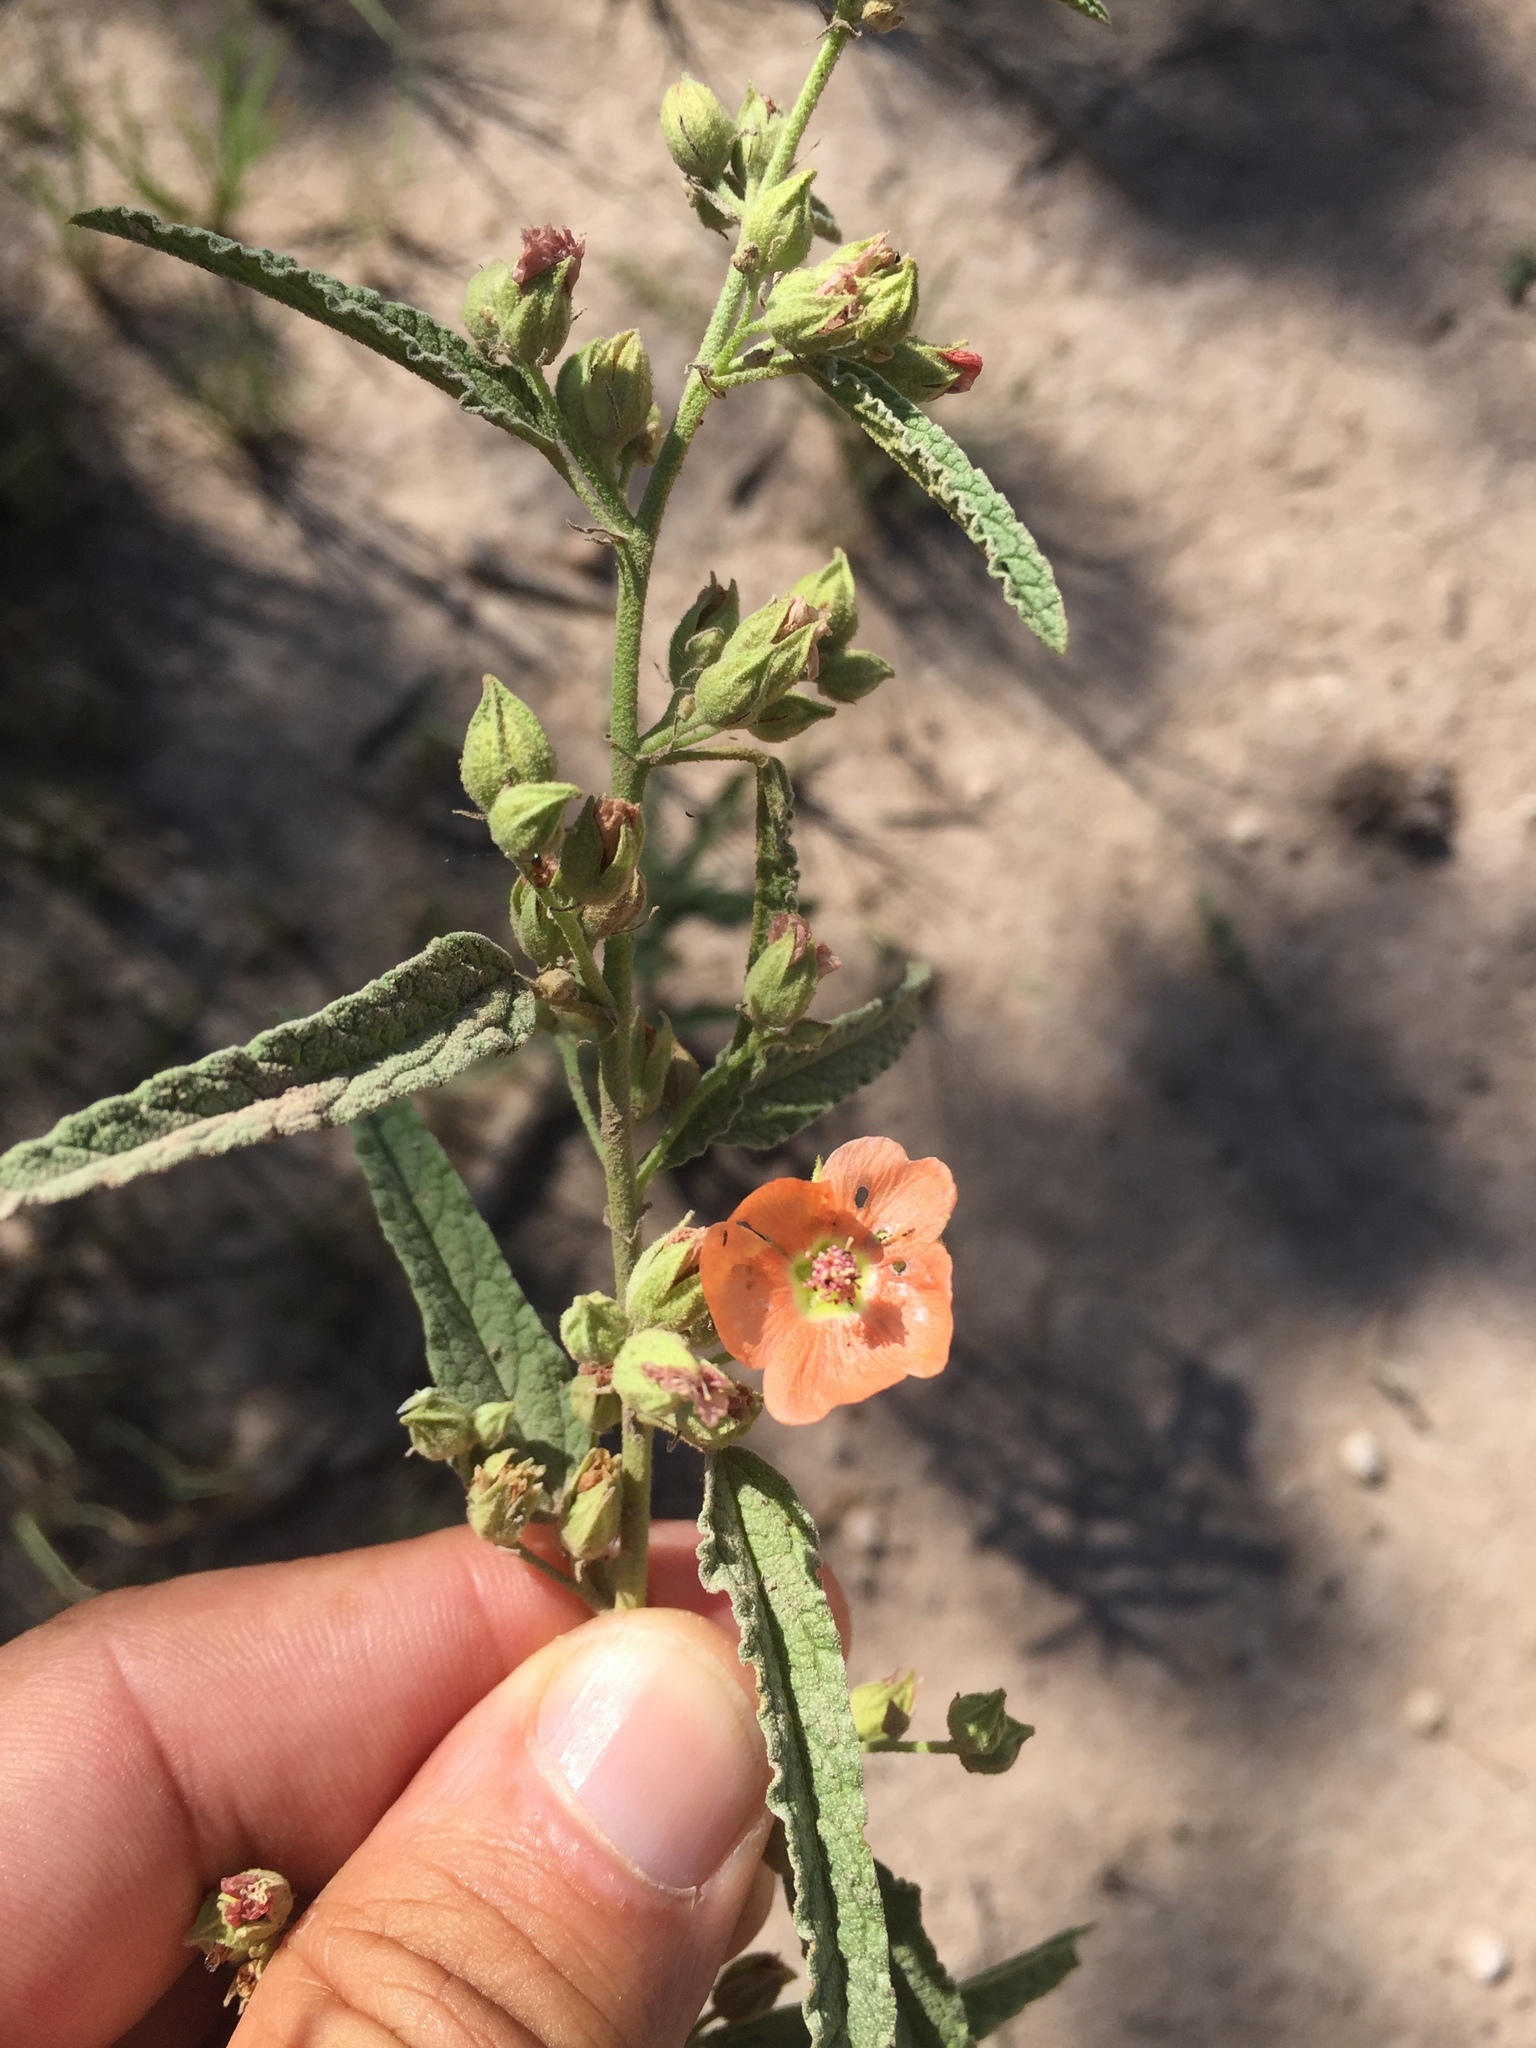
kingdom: Plantae
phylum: Tracheophyta
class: Magnoliopsida
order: Malvales
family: Malvaceae
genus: Sphaeralcea
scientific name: Sphaeralcea angustifolia
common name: Copper globe-mallow
